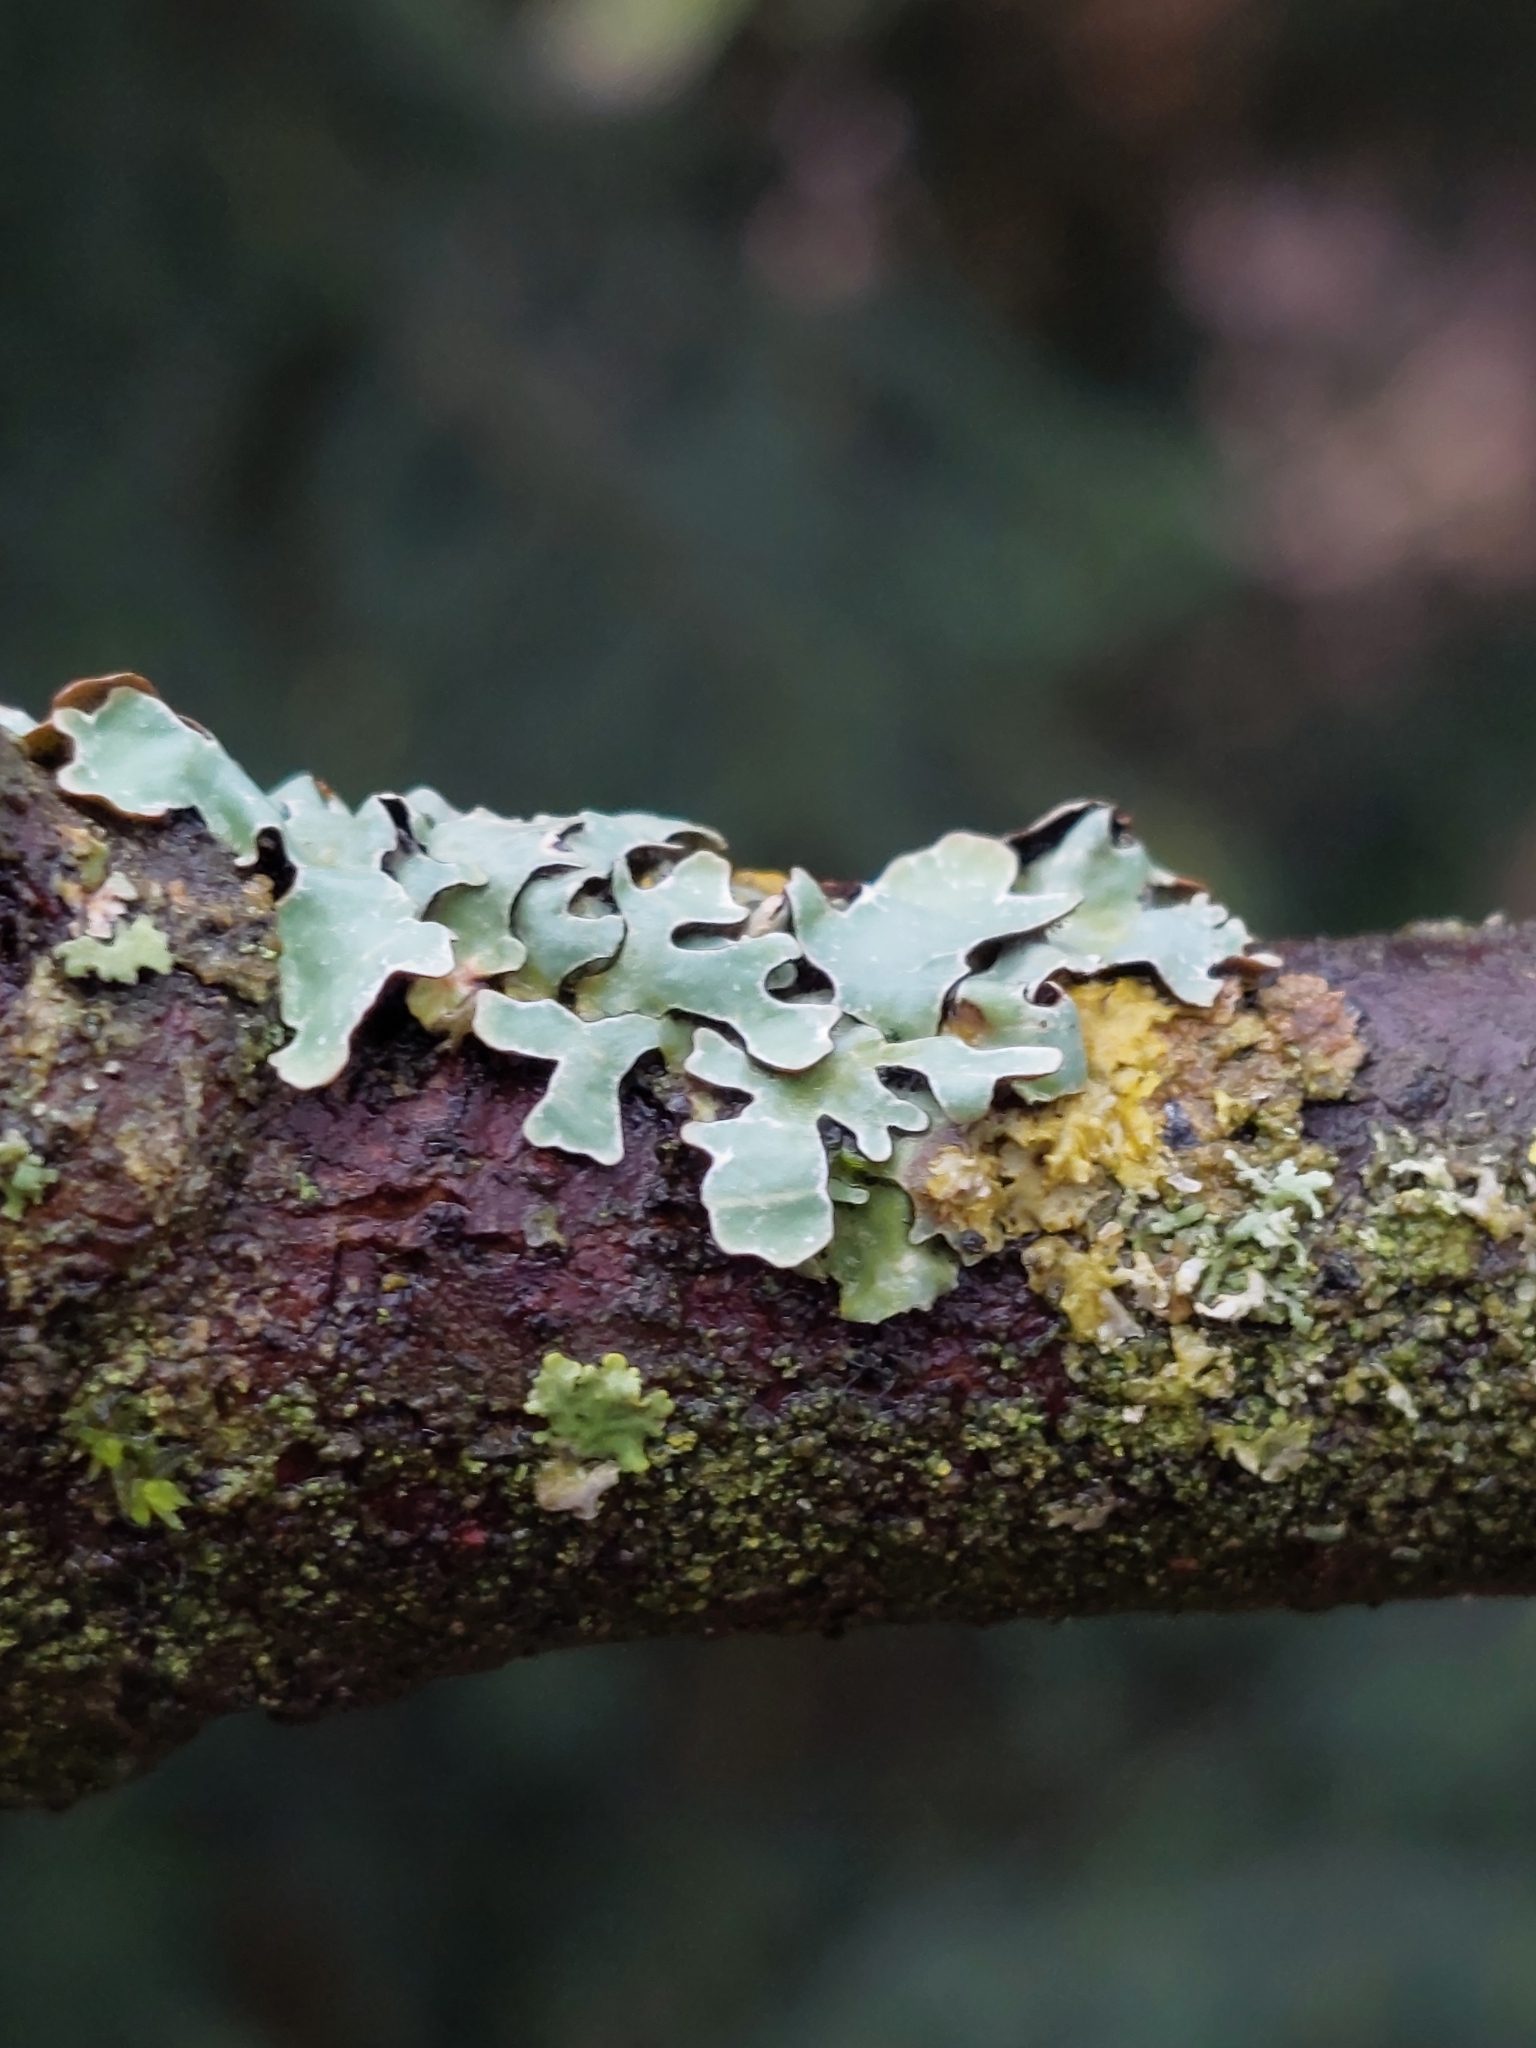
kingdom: Fungi
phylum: Ascomycota
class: Lecanoromycetes
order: Lecanorales
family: Parmeliaceae
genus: Parmelia
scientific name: Parmelia sulcata
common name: Netted shield lichen
